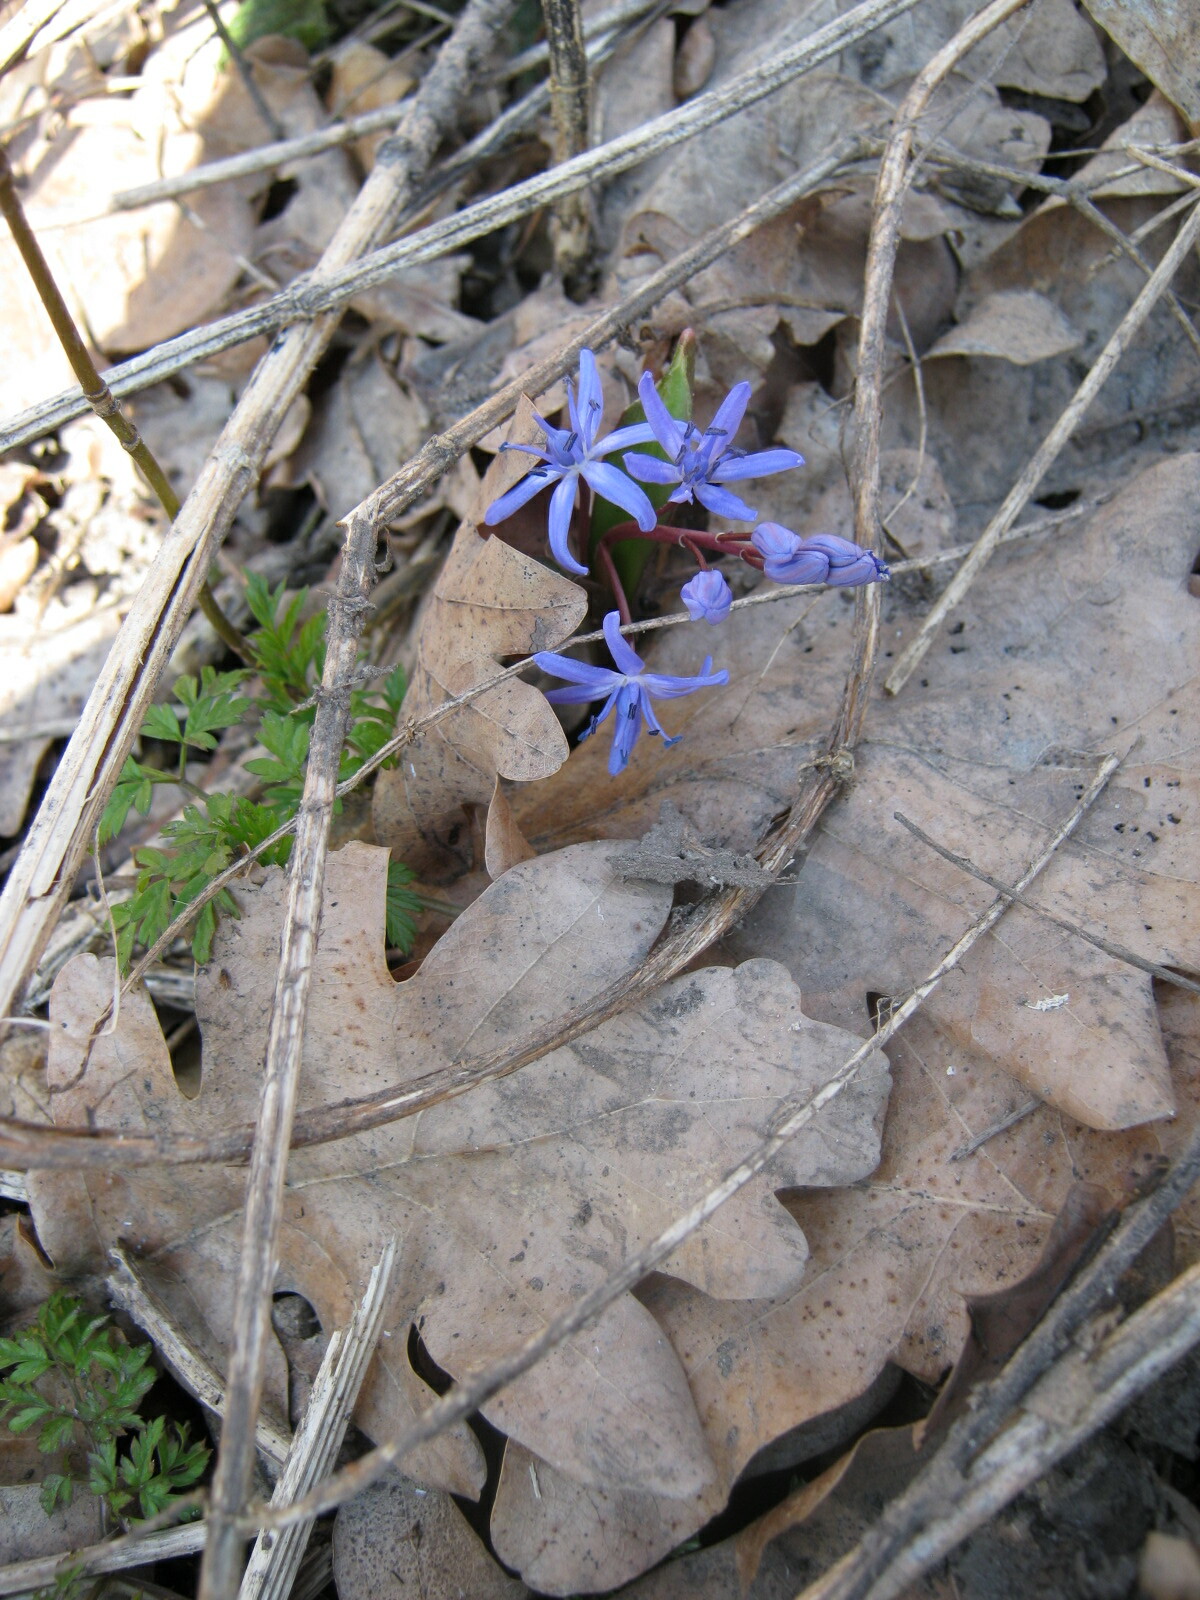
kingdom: Plantae
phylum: Tracheophyta
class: Liliopsida
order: Asparagales
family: Asparagaceae
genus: Scilla
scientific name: Scilla bifolia
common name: Alpine squill
